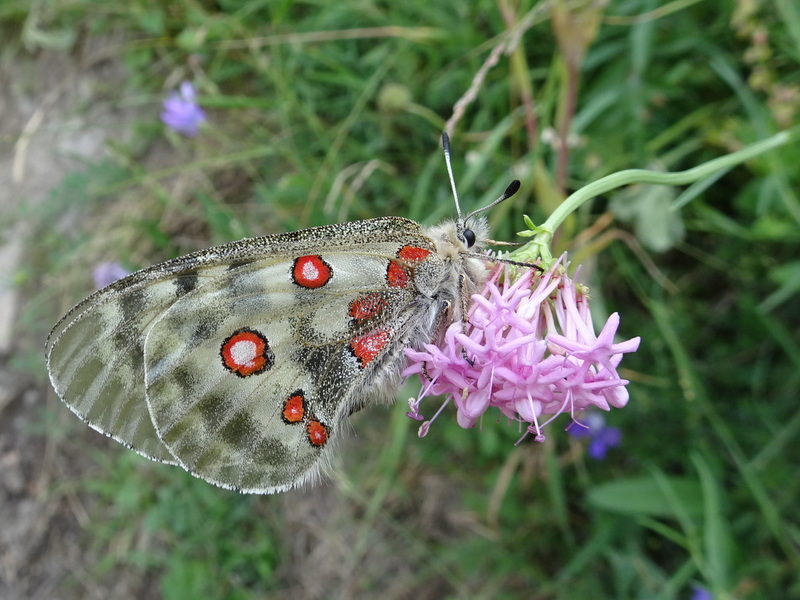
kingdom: Animalia
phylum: Arthropoda
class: Insecta
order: Lepidoptera
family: Papilionidae
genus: Parnassius
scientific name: Parnassius apollo
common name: Apollo
